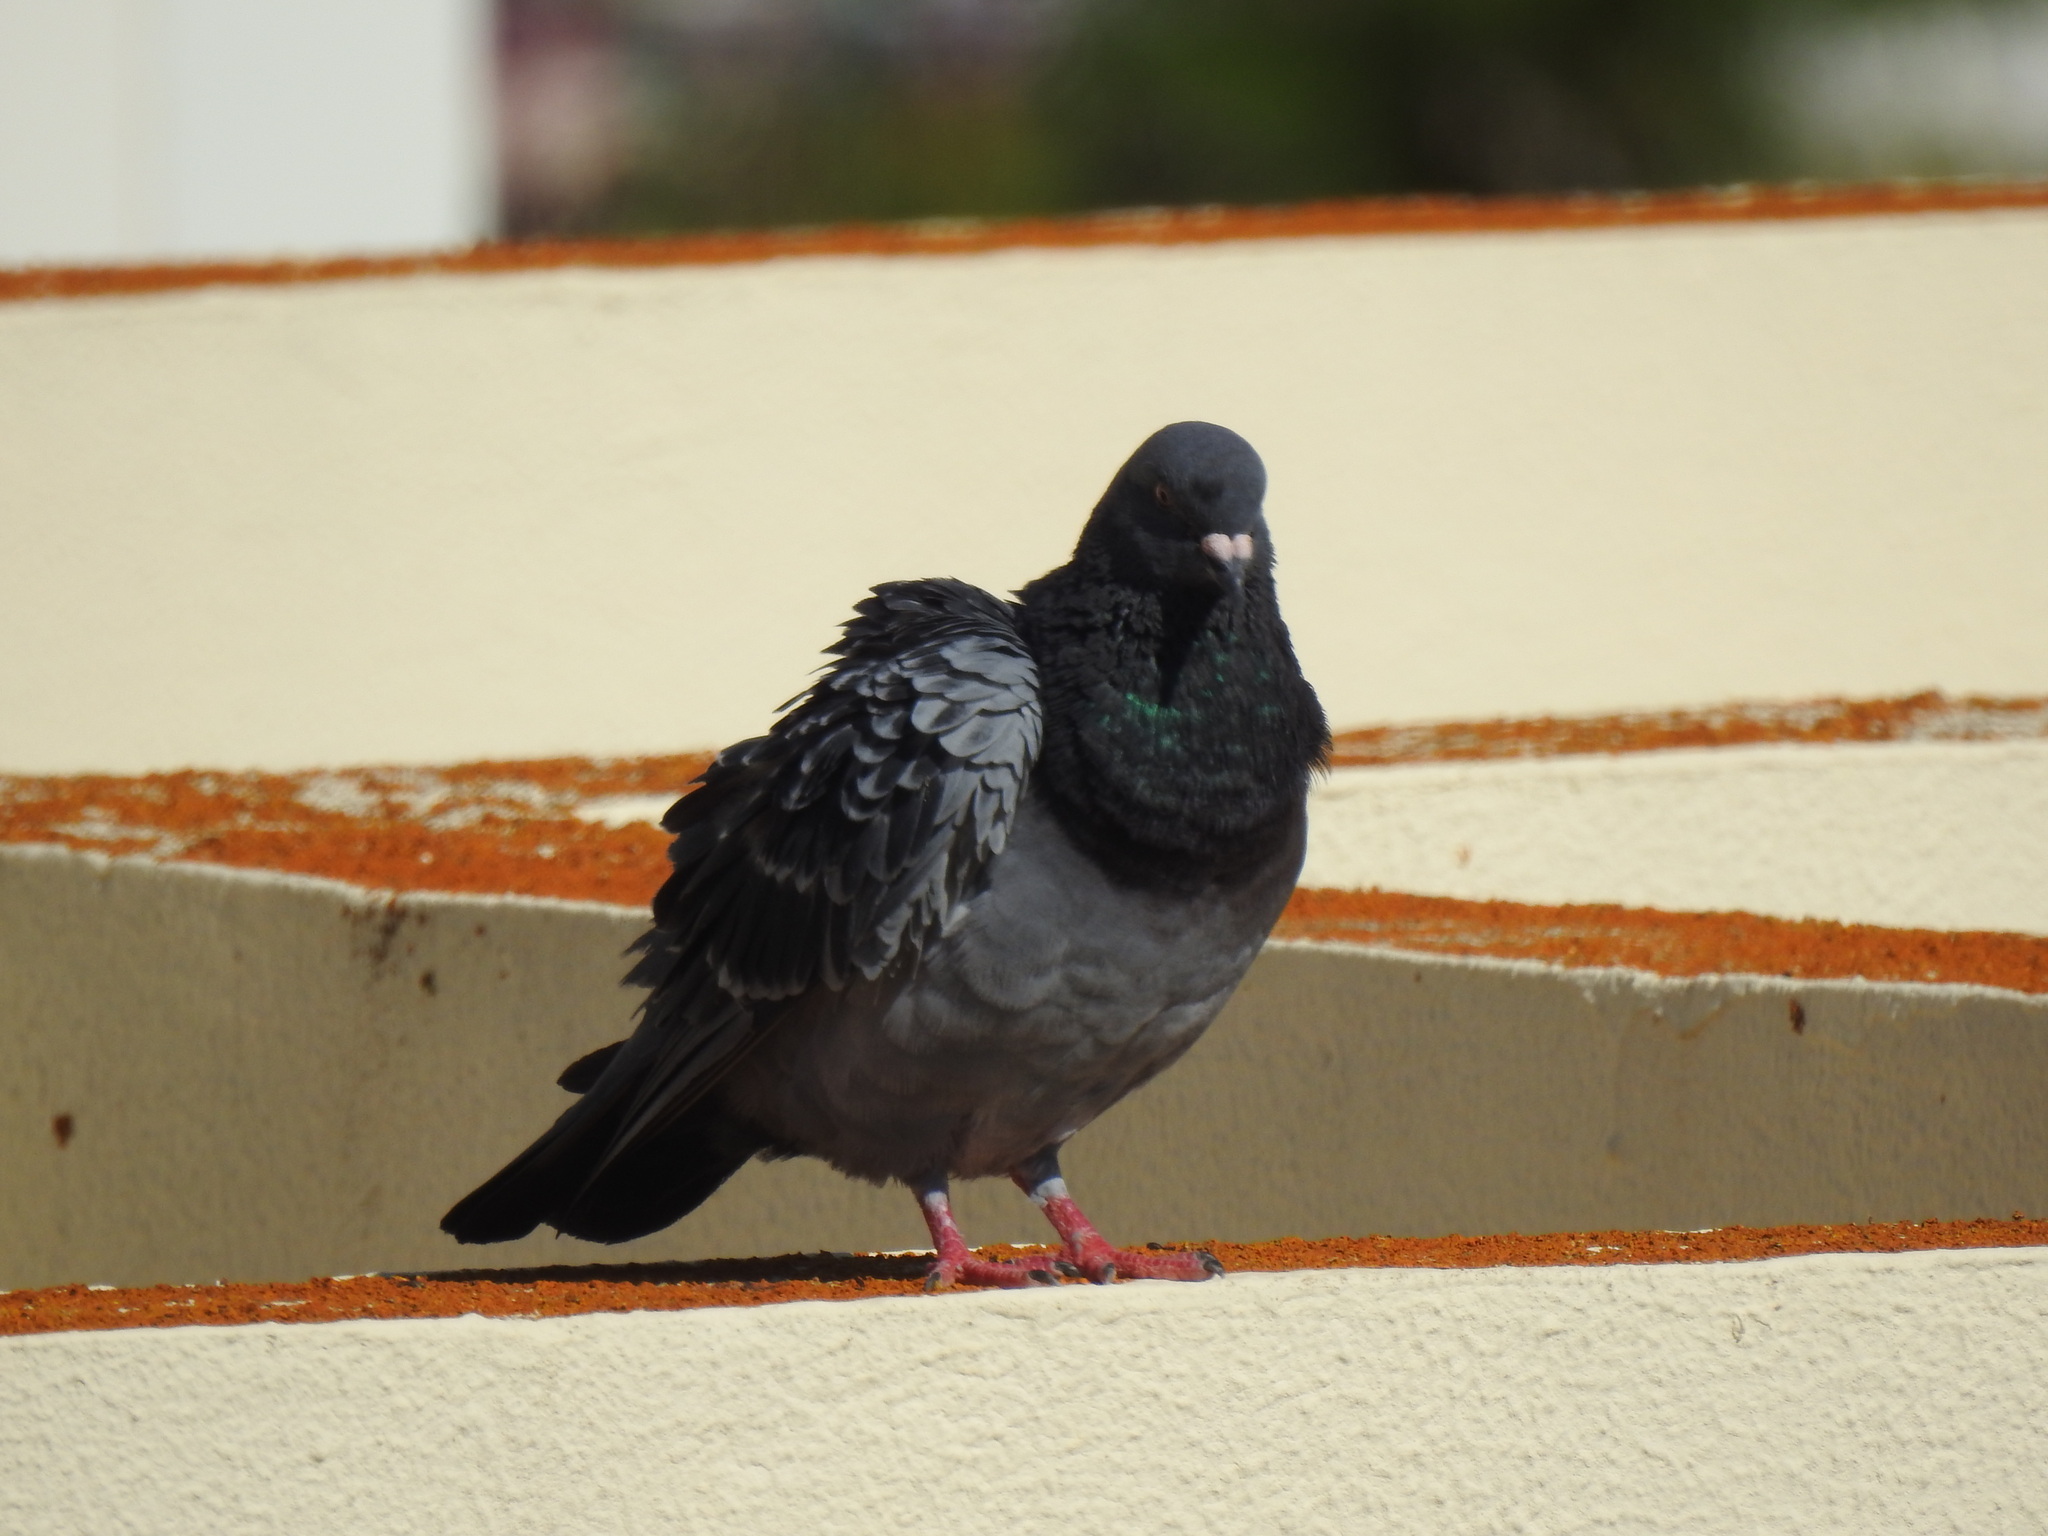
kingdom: Animalia
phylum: Chordata
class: Aves
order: Columbiformes
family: Columbidae
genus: Columba
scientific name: Columba livia
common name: Rock pigeon
